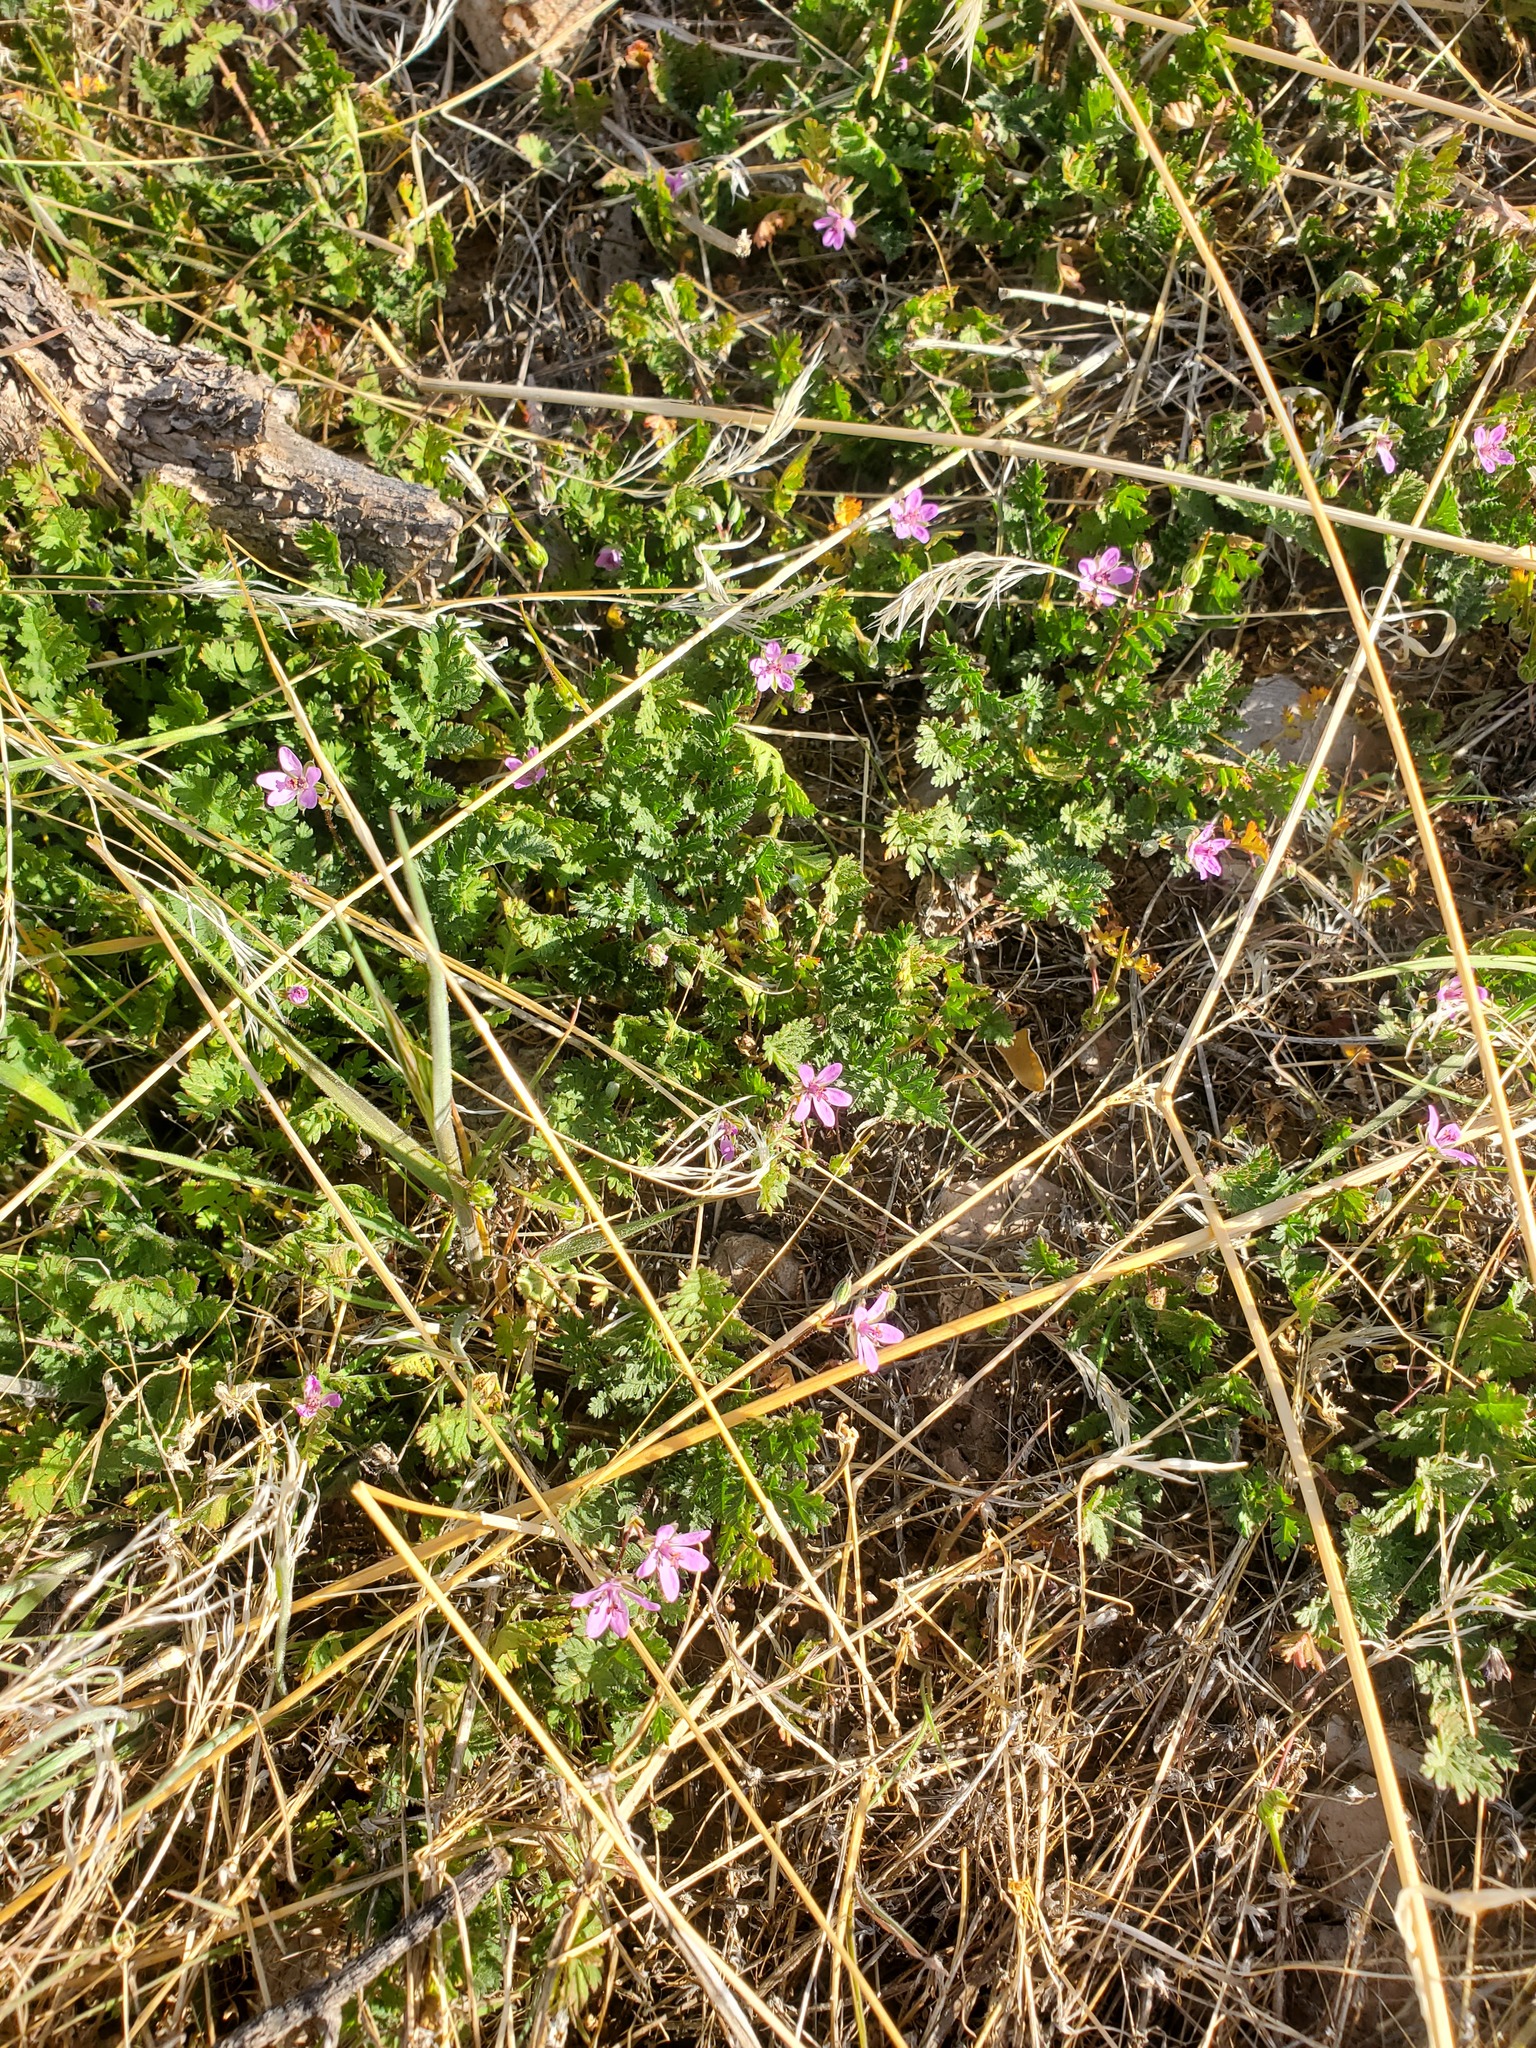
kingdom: Plantae
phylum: Tracheophyta
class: Magnoliopsida
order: Geraniales
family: Geraniaceae
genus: Erodium
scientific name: Erodium cicutarium
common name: Common stork's-bill
